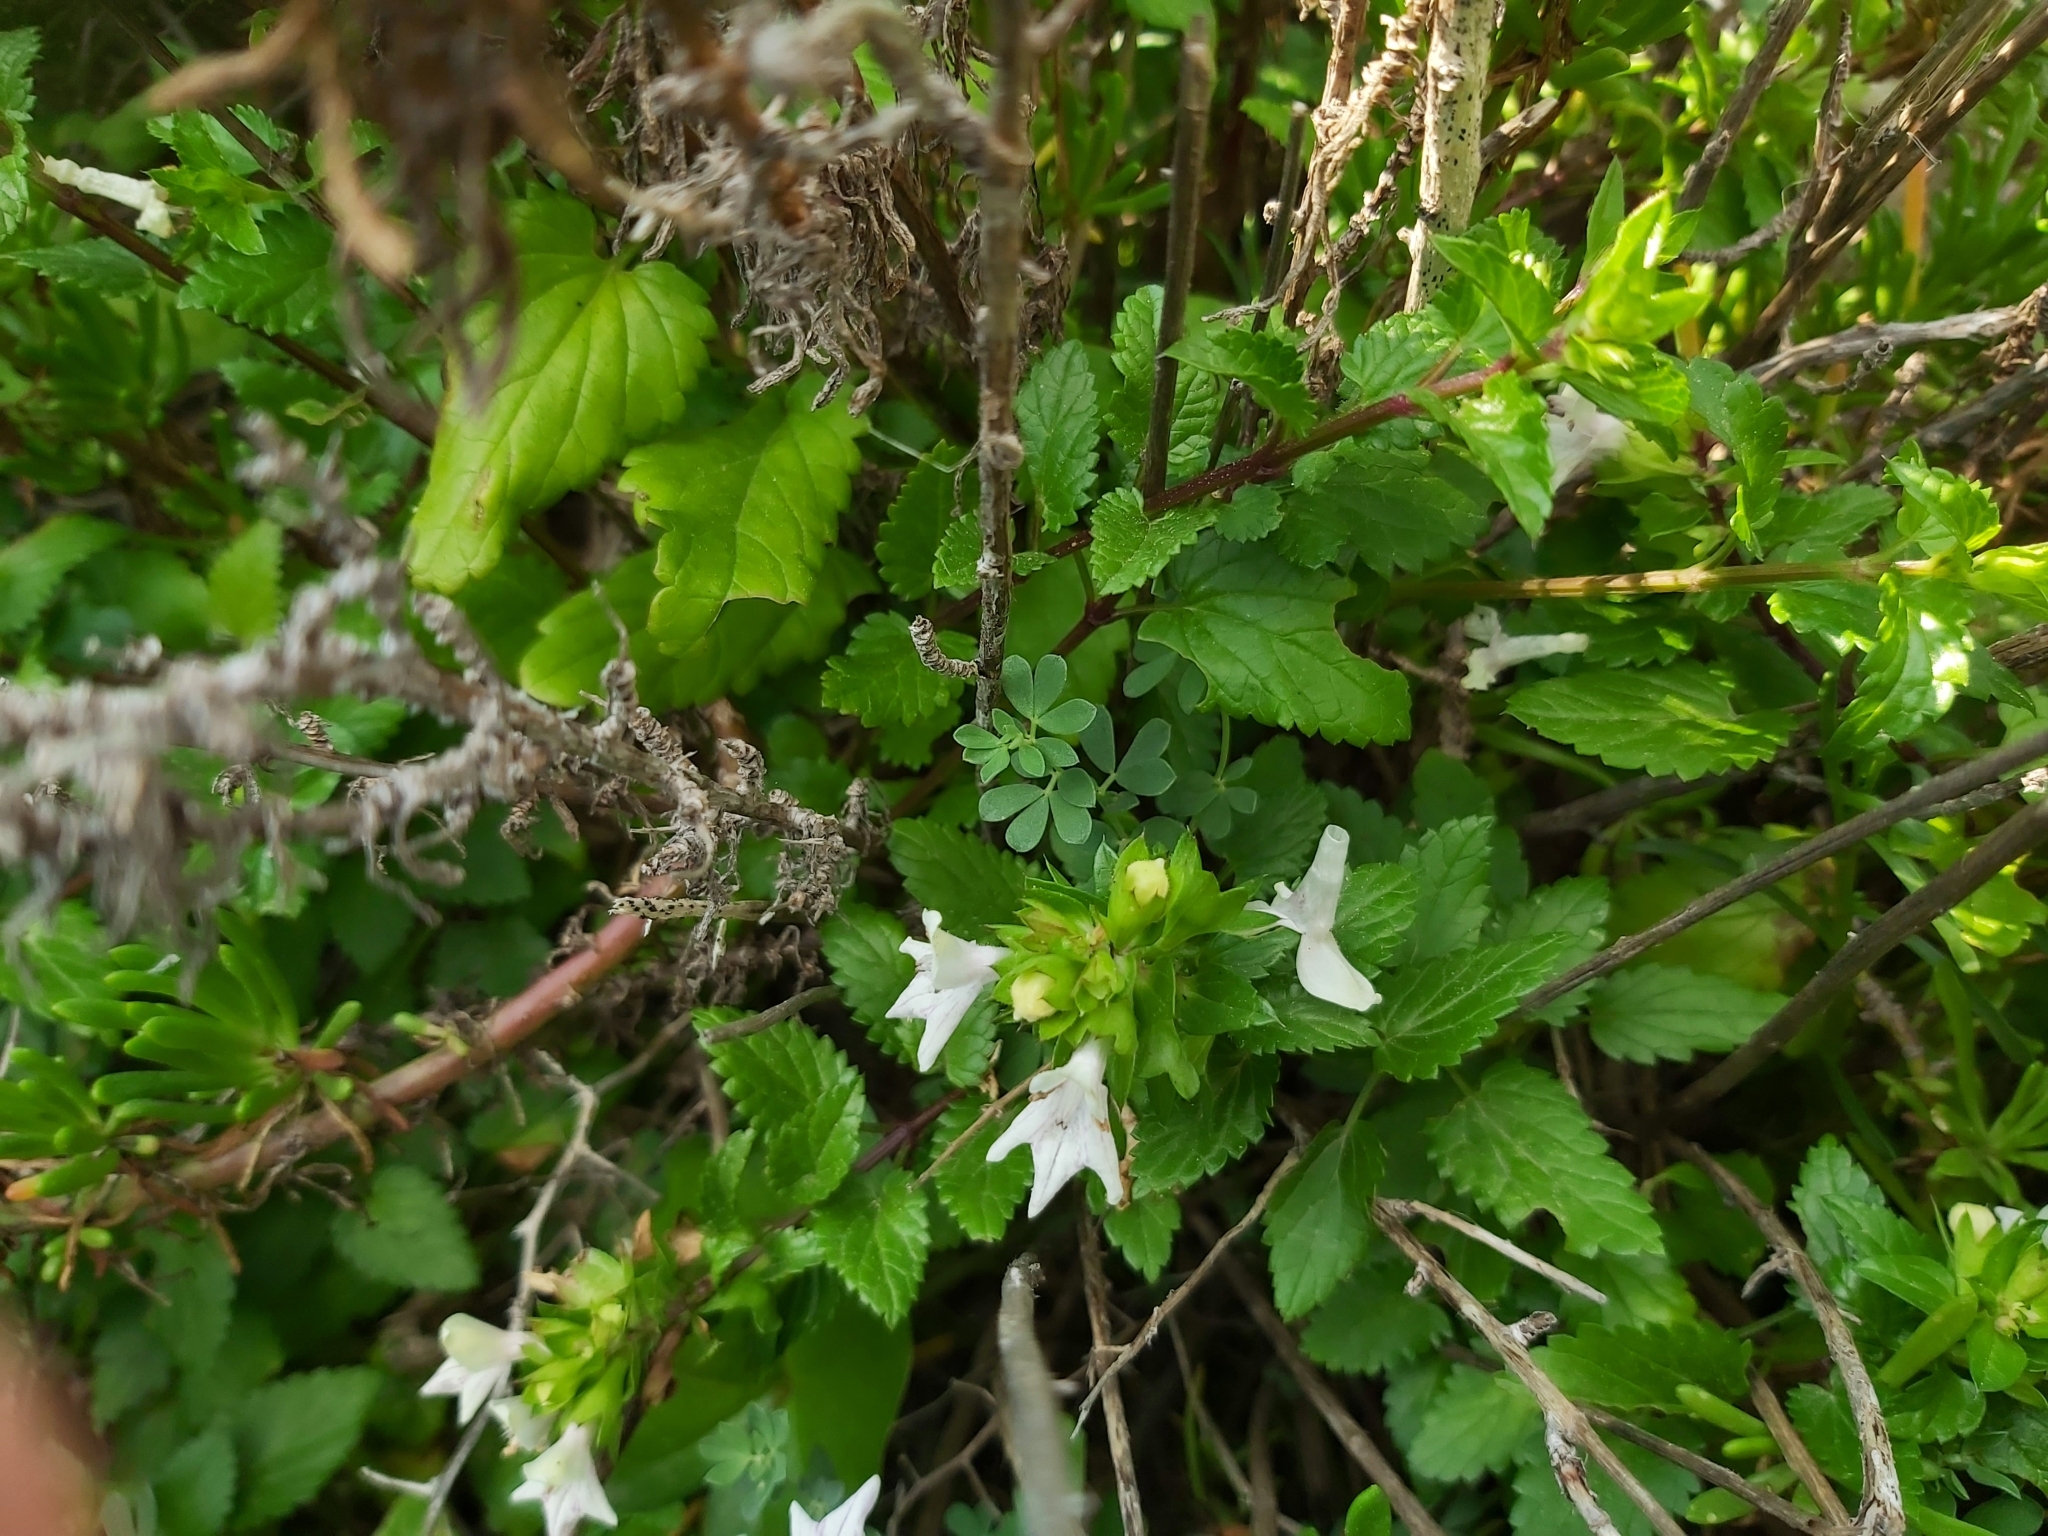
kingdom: Plantae
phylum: Tracheophyta
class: Magnoliopsida
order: Lamiales
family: Lamiaceae
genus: Prasium
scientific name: Prasium majus
